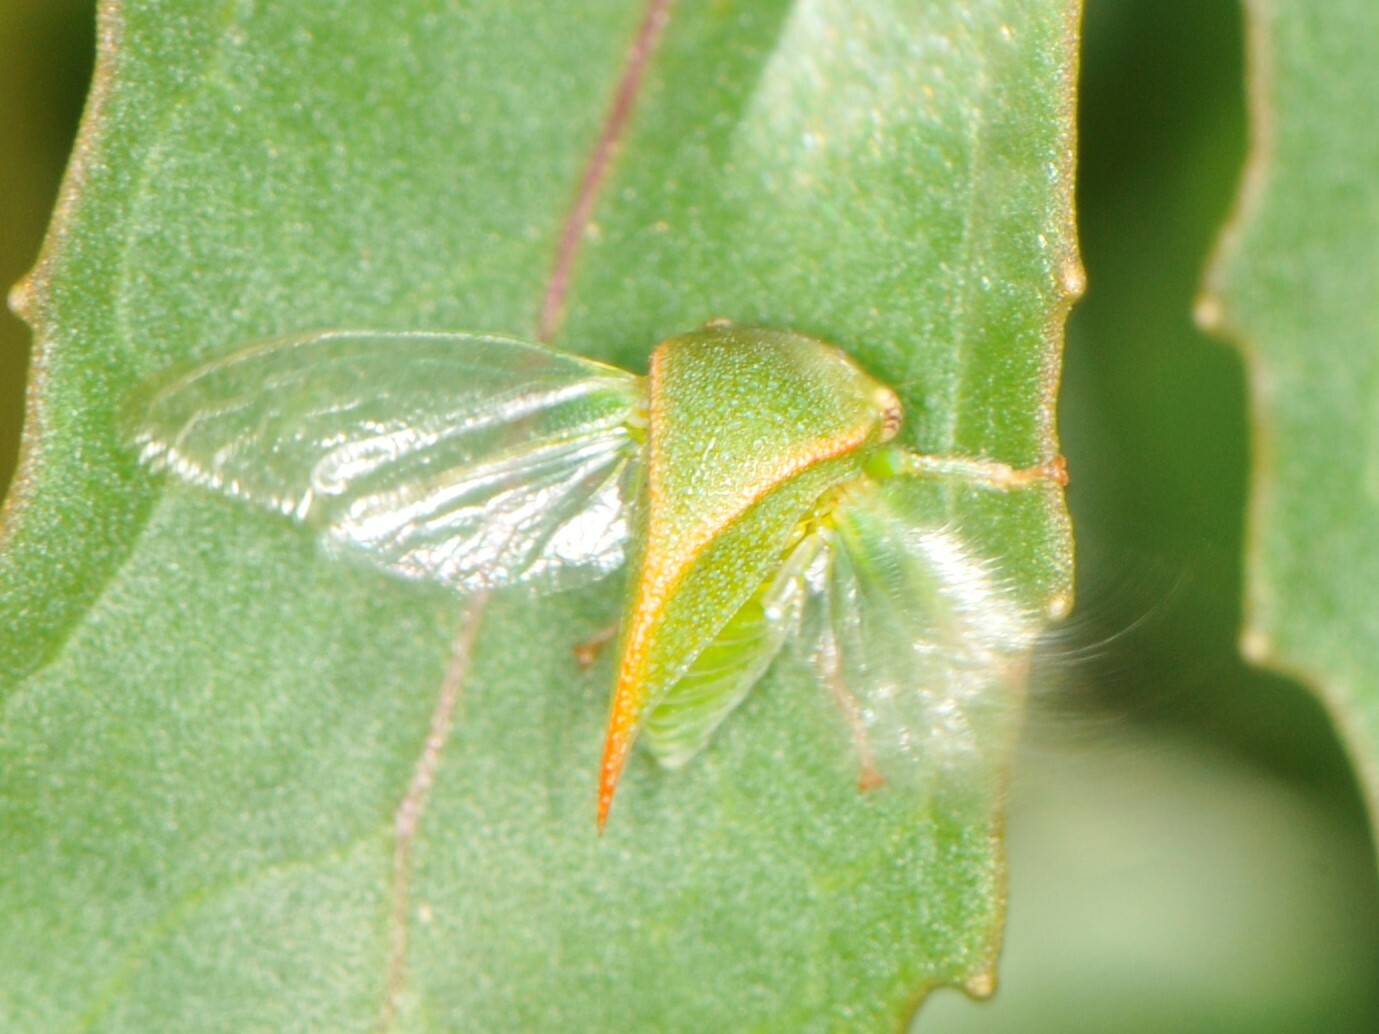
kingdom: Animalia
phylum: Arthropoda
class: Insecta
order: Hemiptera
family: Membracidae
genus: Spissistilus
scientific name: Spissistilus festina
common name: Membracid bug
